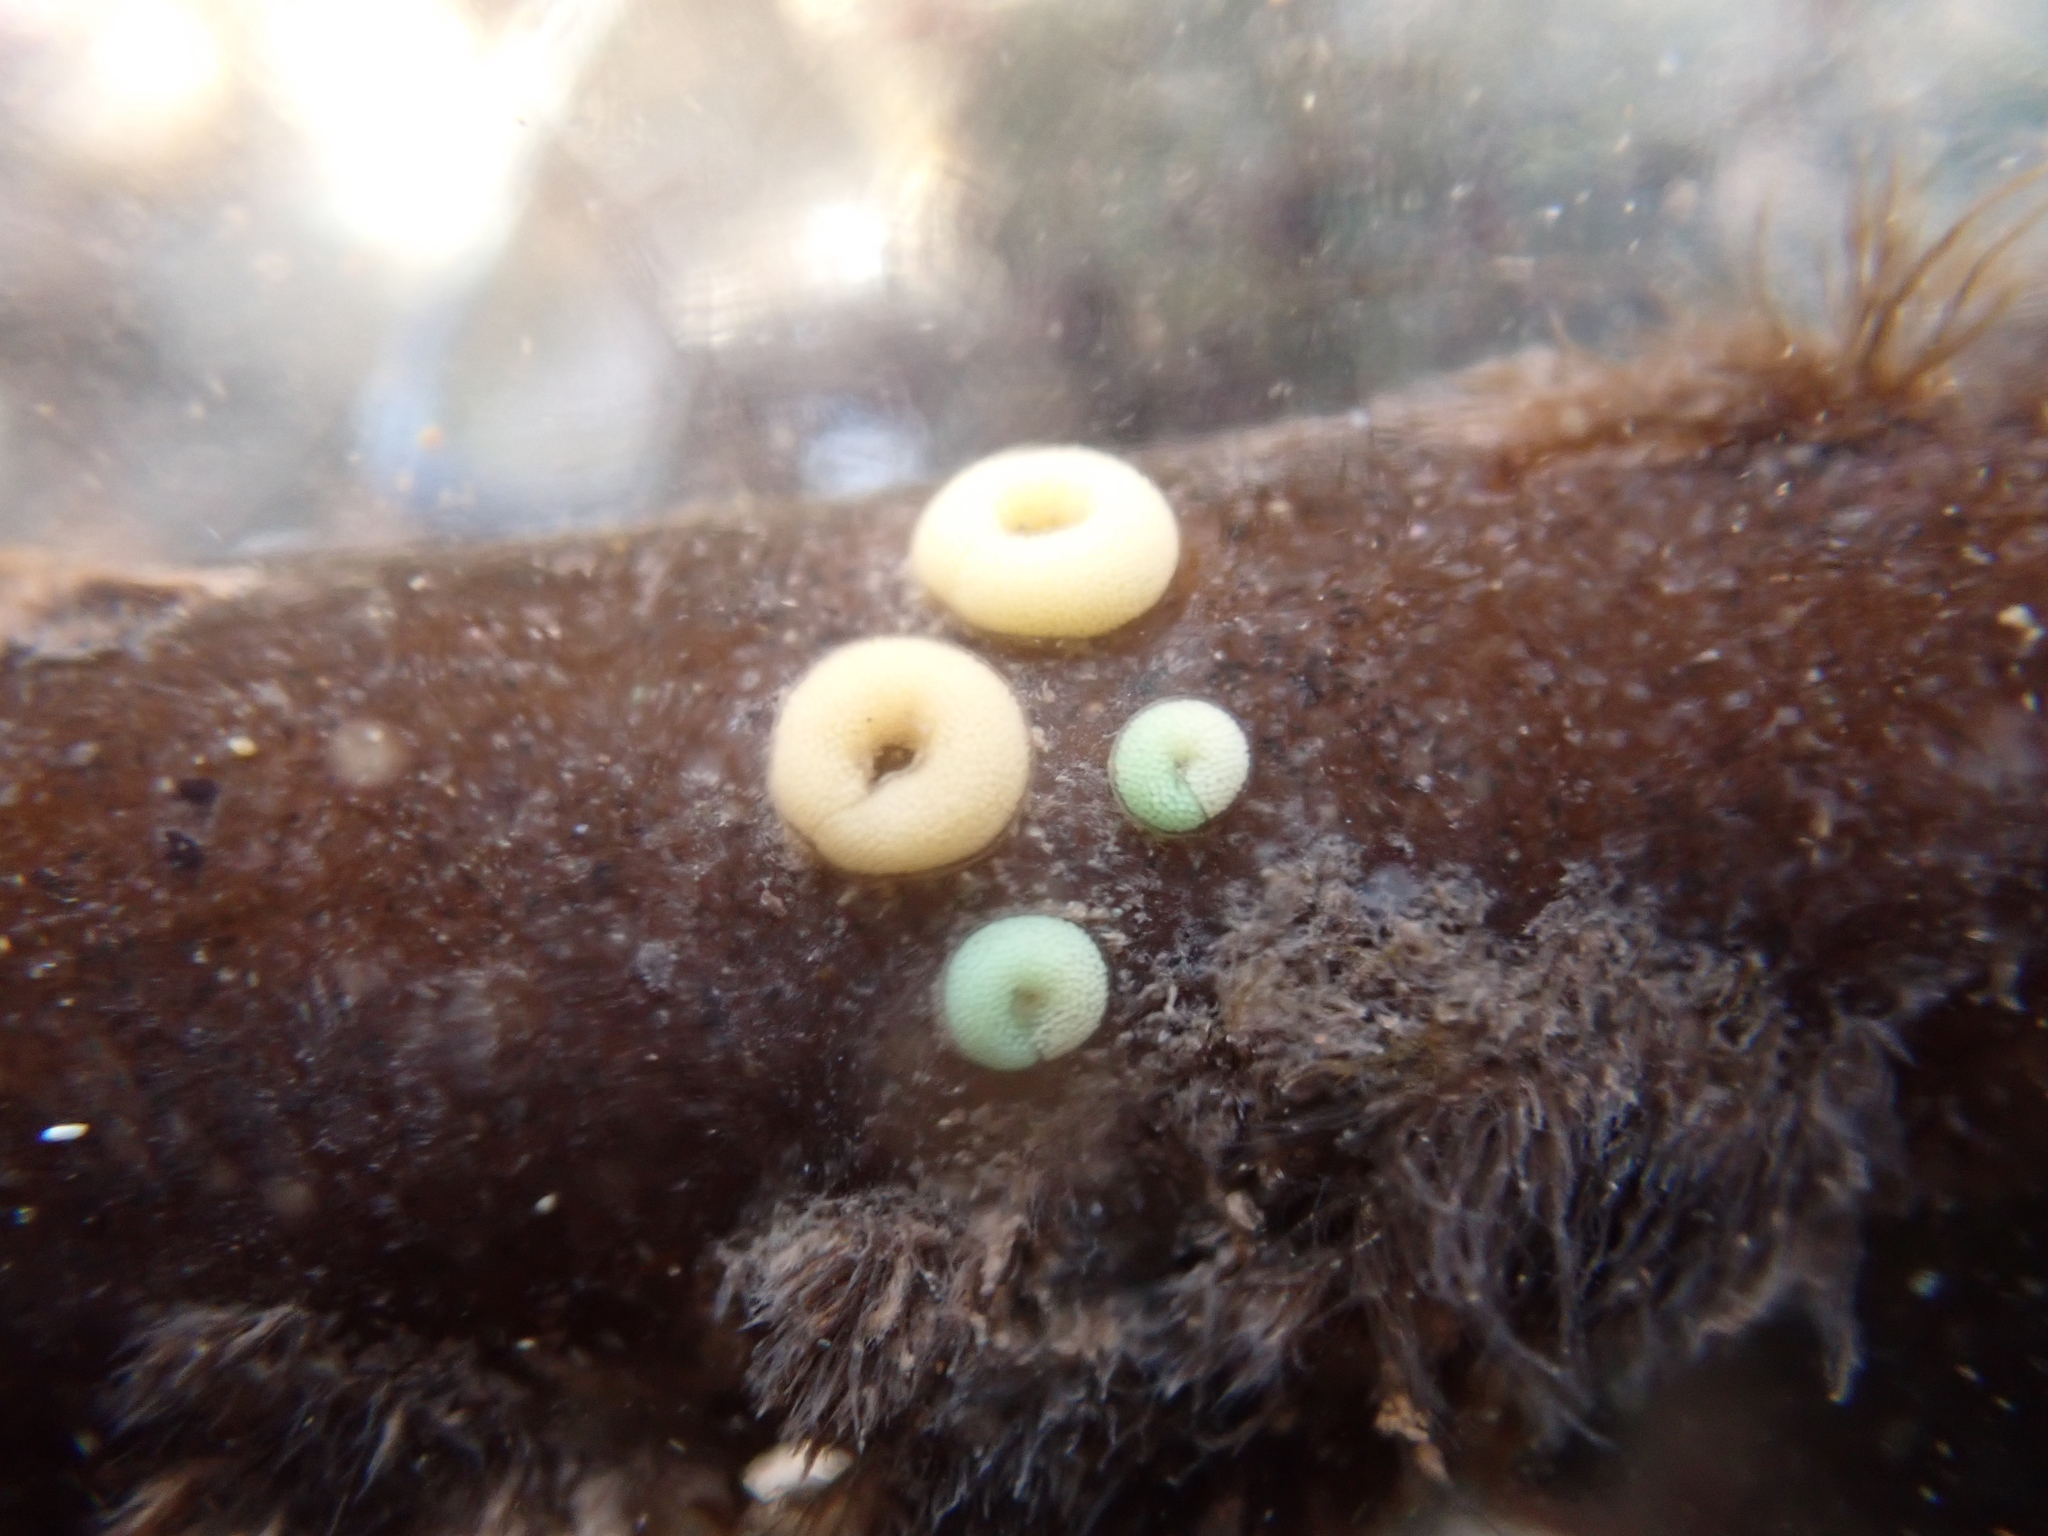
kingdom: Animalia
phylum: Mollusca
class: Gastropoda
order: Littorinimorpha
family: Littorinidae
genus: Lacuna
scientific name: Lacuna vincta
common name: Banded chink shell
